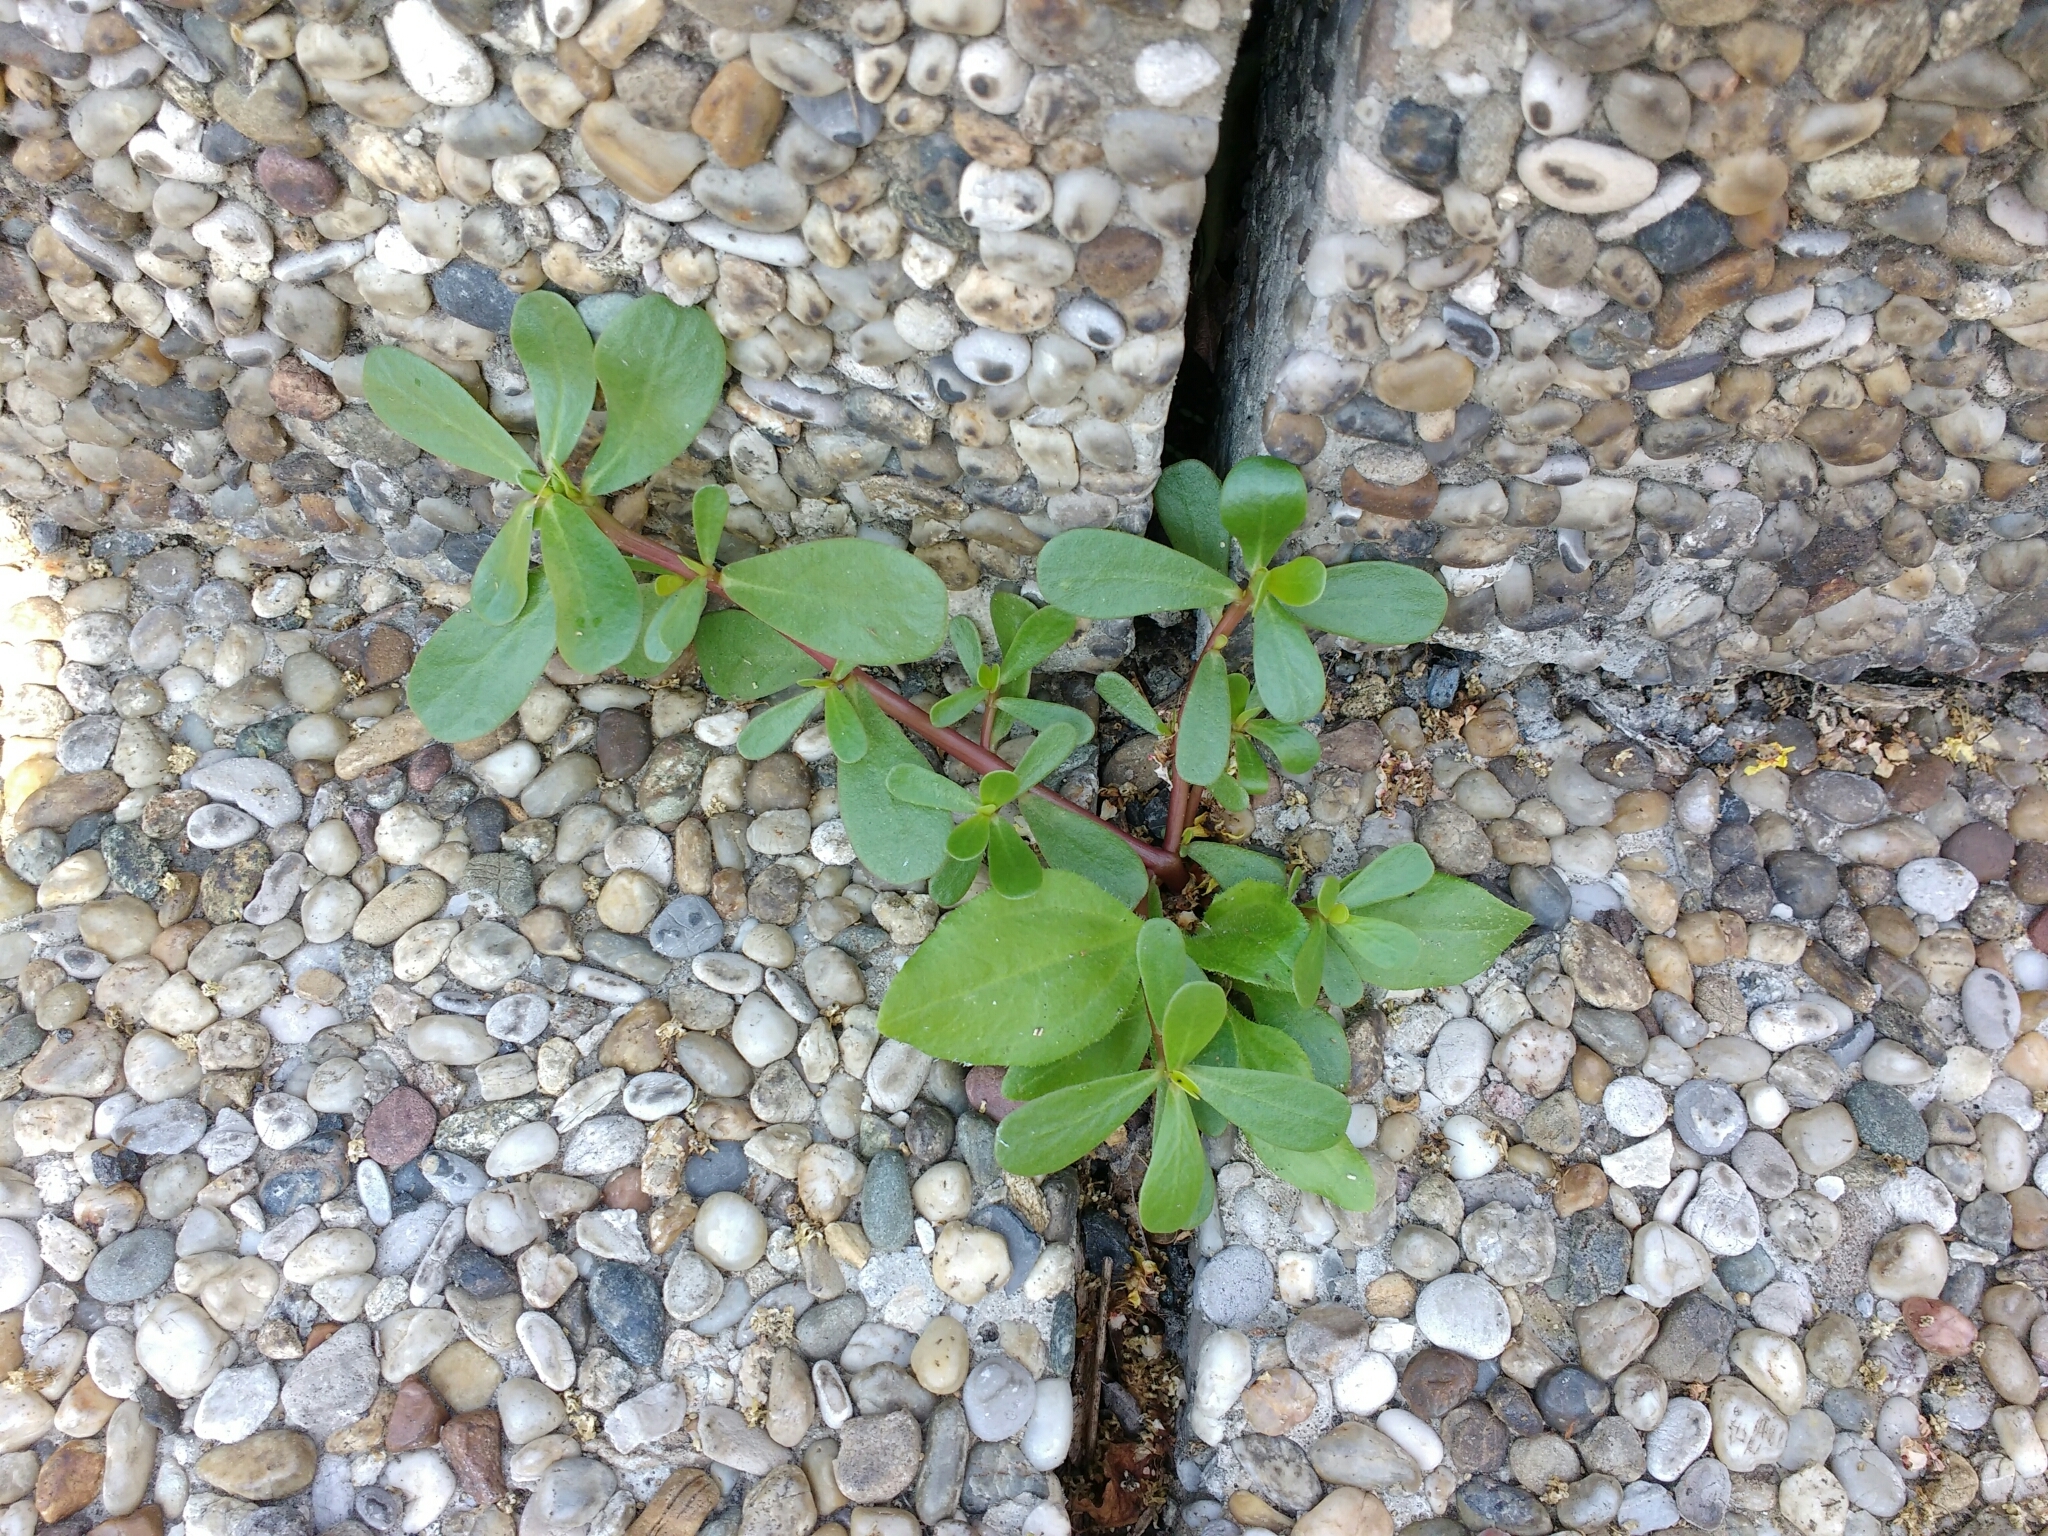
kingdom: Plantae
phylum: Tracheophyta
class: Magnoliopsida
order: Caryophyllales
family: Portulacaceae
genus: Portulaca
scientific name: Portulaca oleracea
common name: Common purslane
